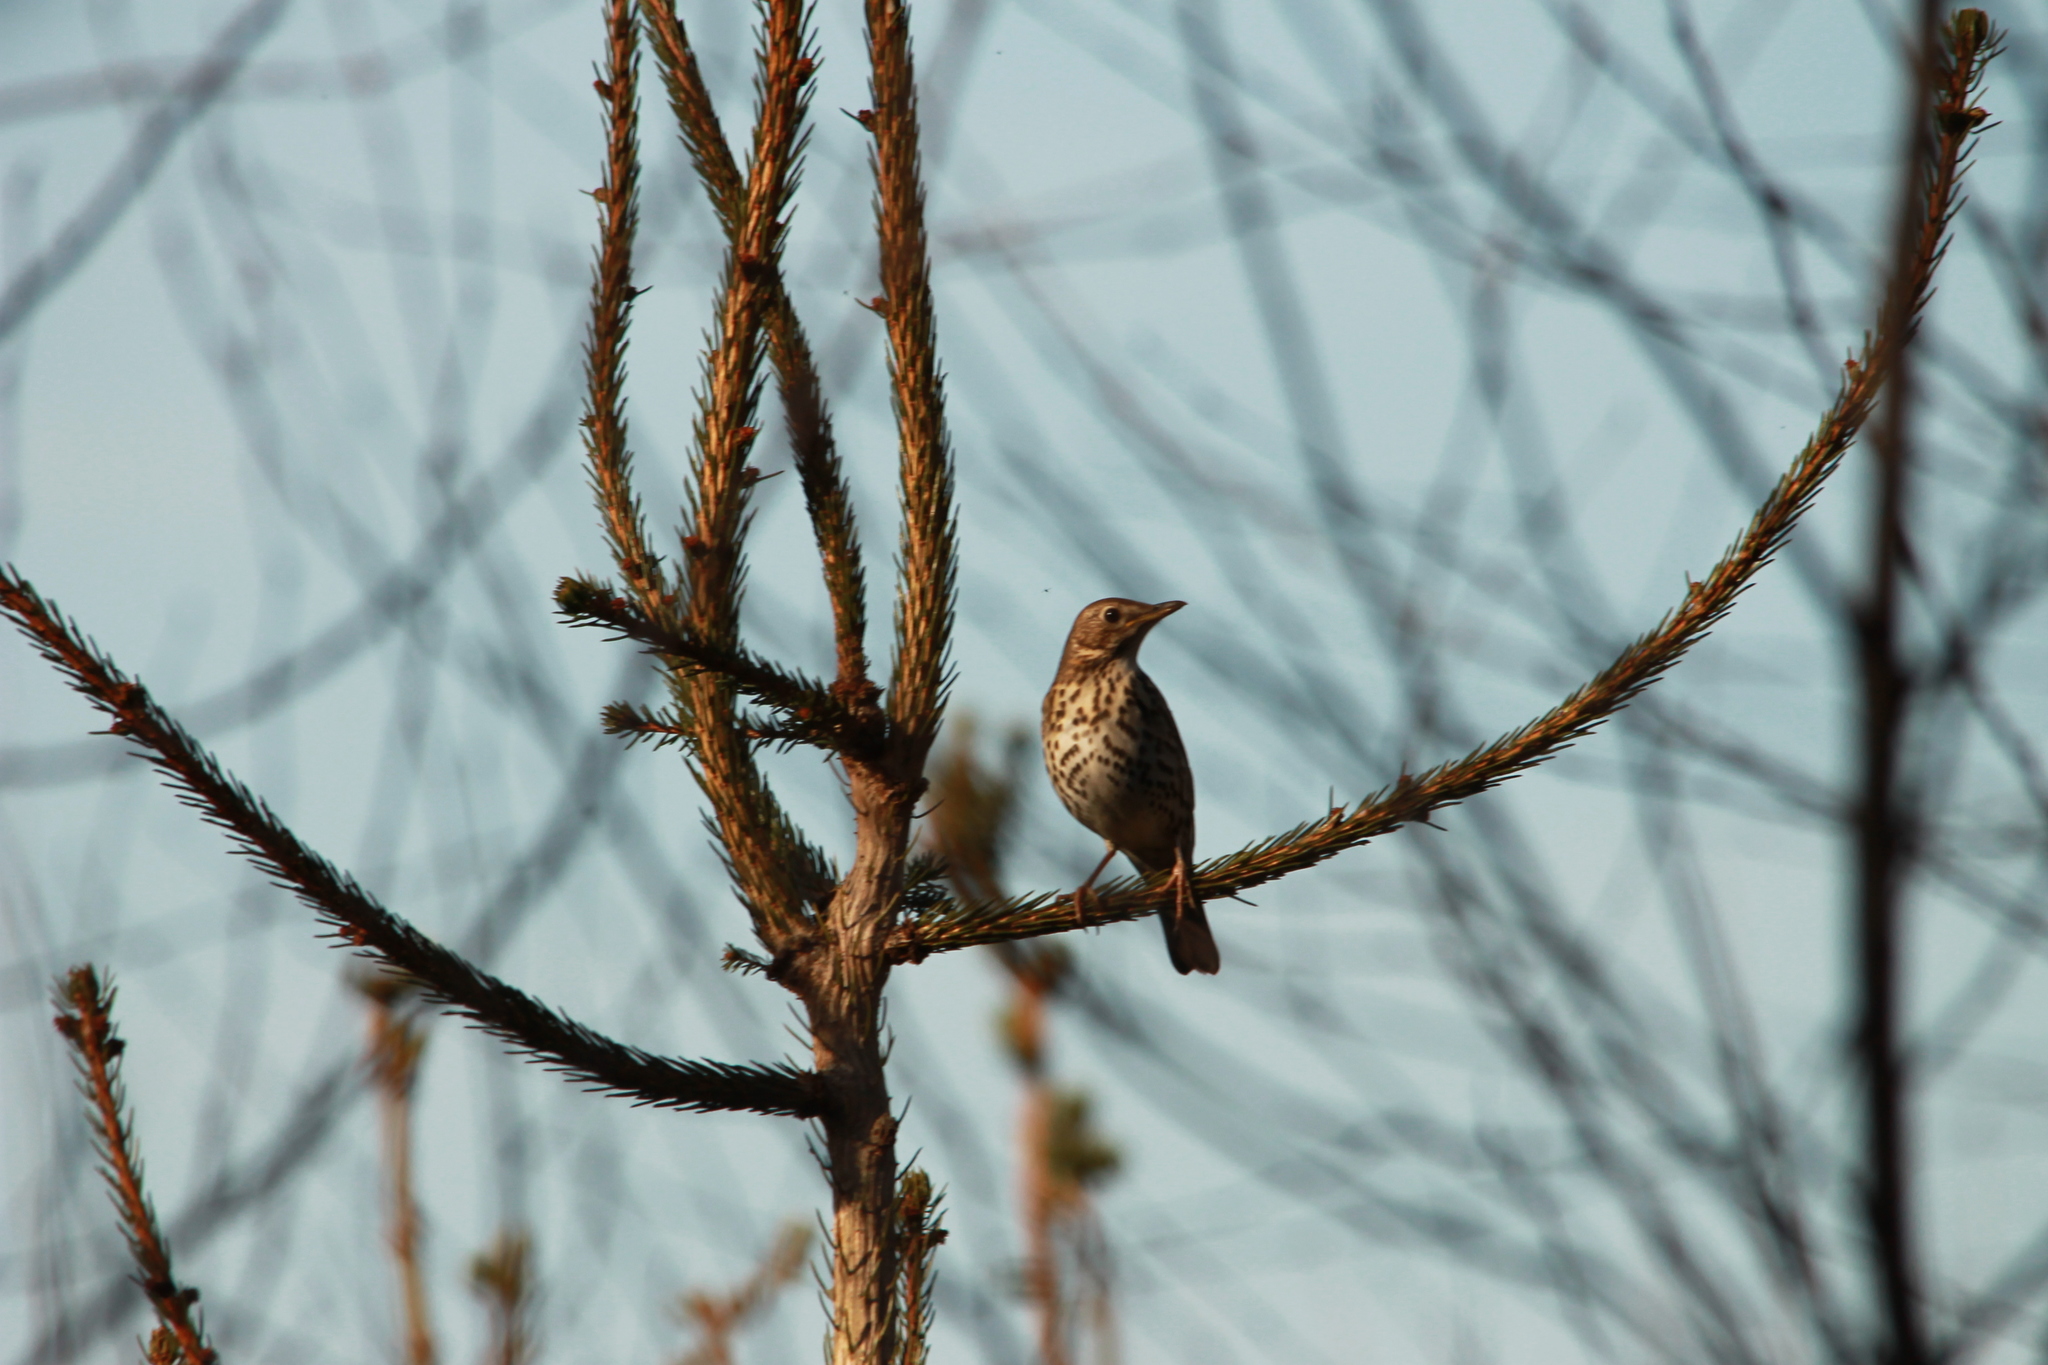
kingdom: Animalia
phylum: Chordata
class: Aves
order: Passeriformes
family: Turdidae
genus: Turdus
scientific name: Turdus philomelos
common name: Song thrush
